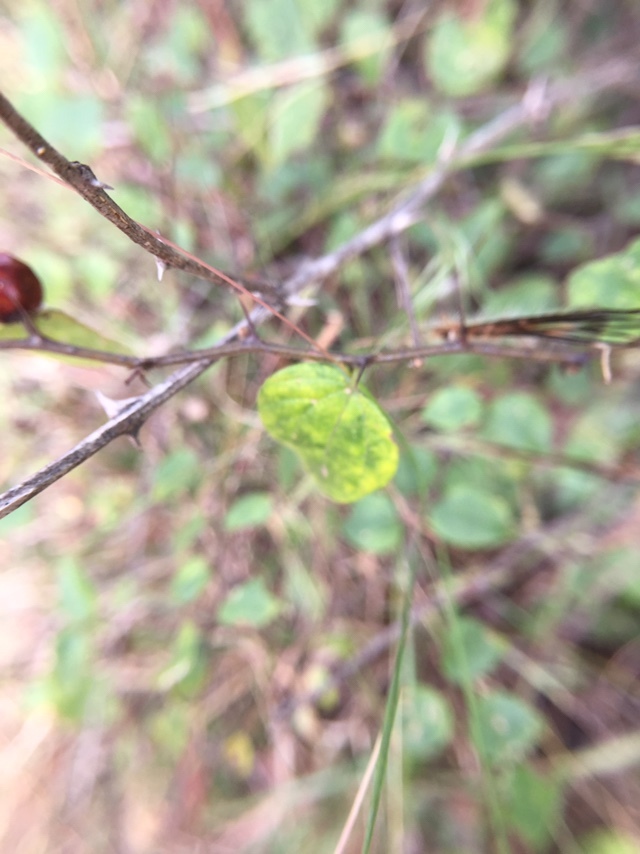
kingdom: Plantae
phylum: Tracheophyta
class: Magnoliopsida
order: Rosales
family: Rhamnaceae
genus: Ziziphus
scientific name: Ziziphus oenopolia
